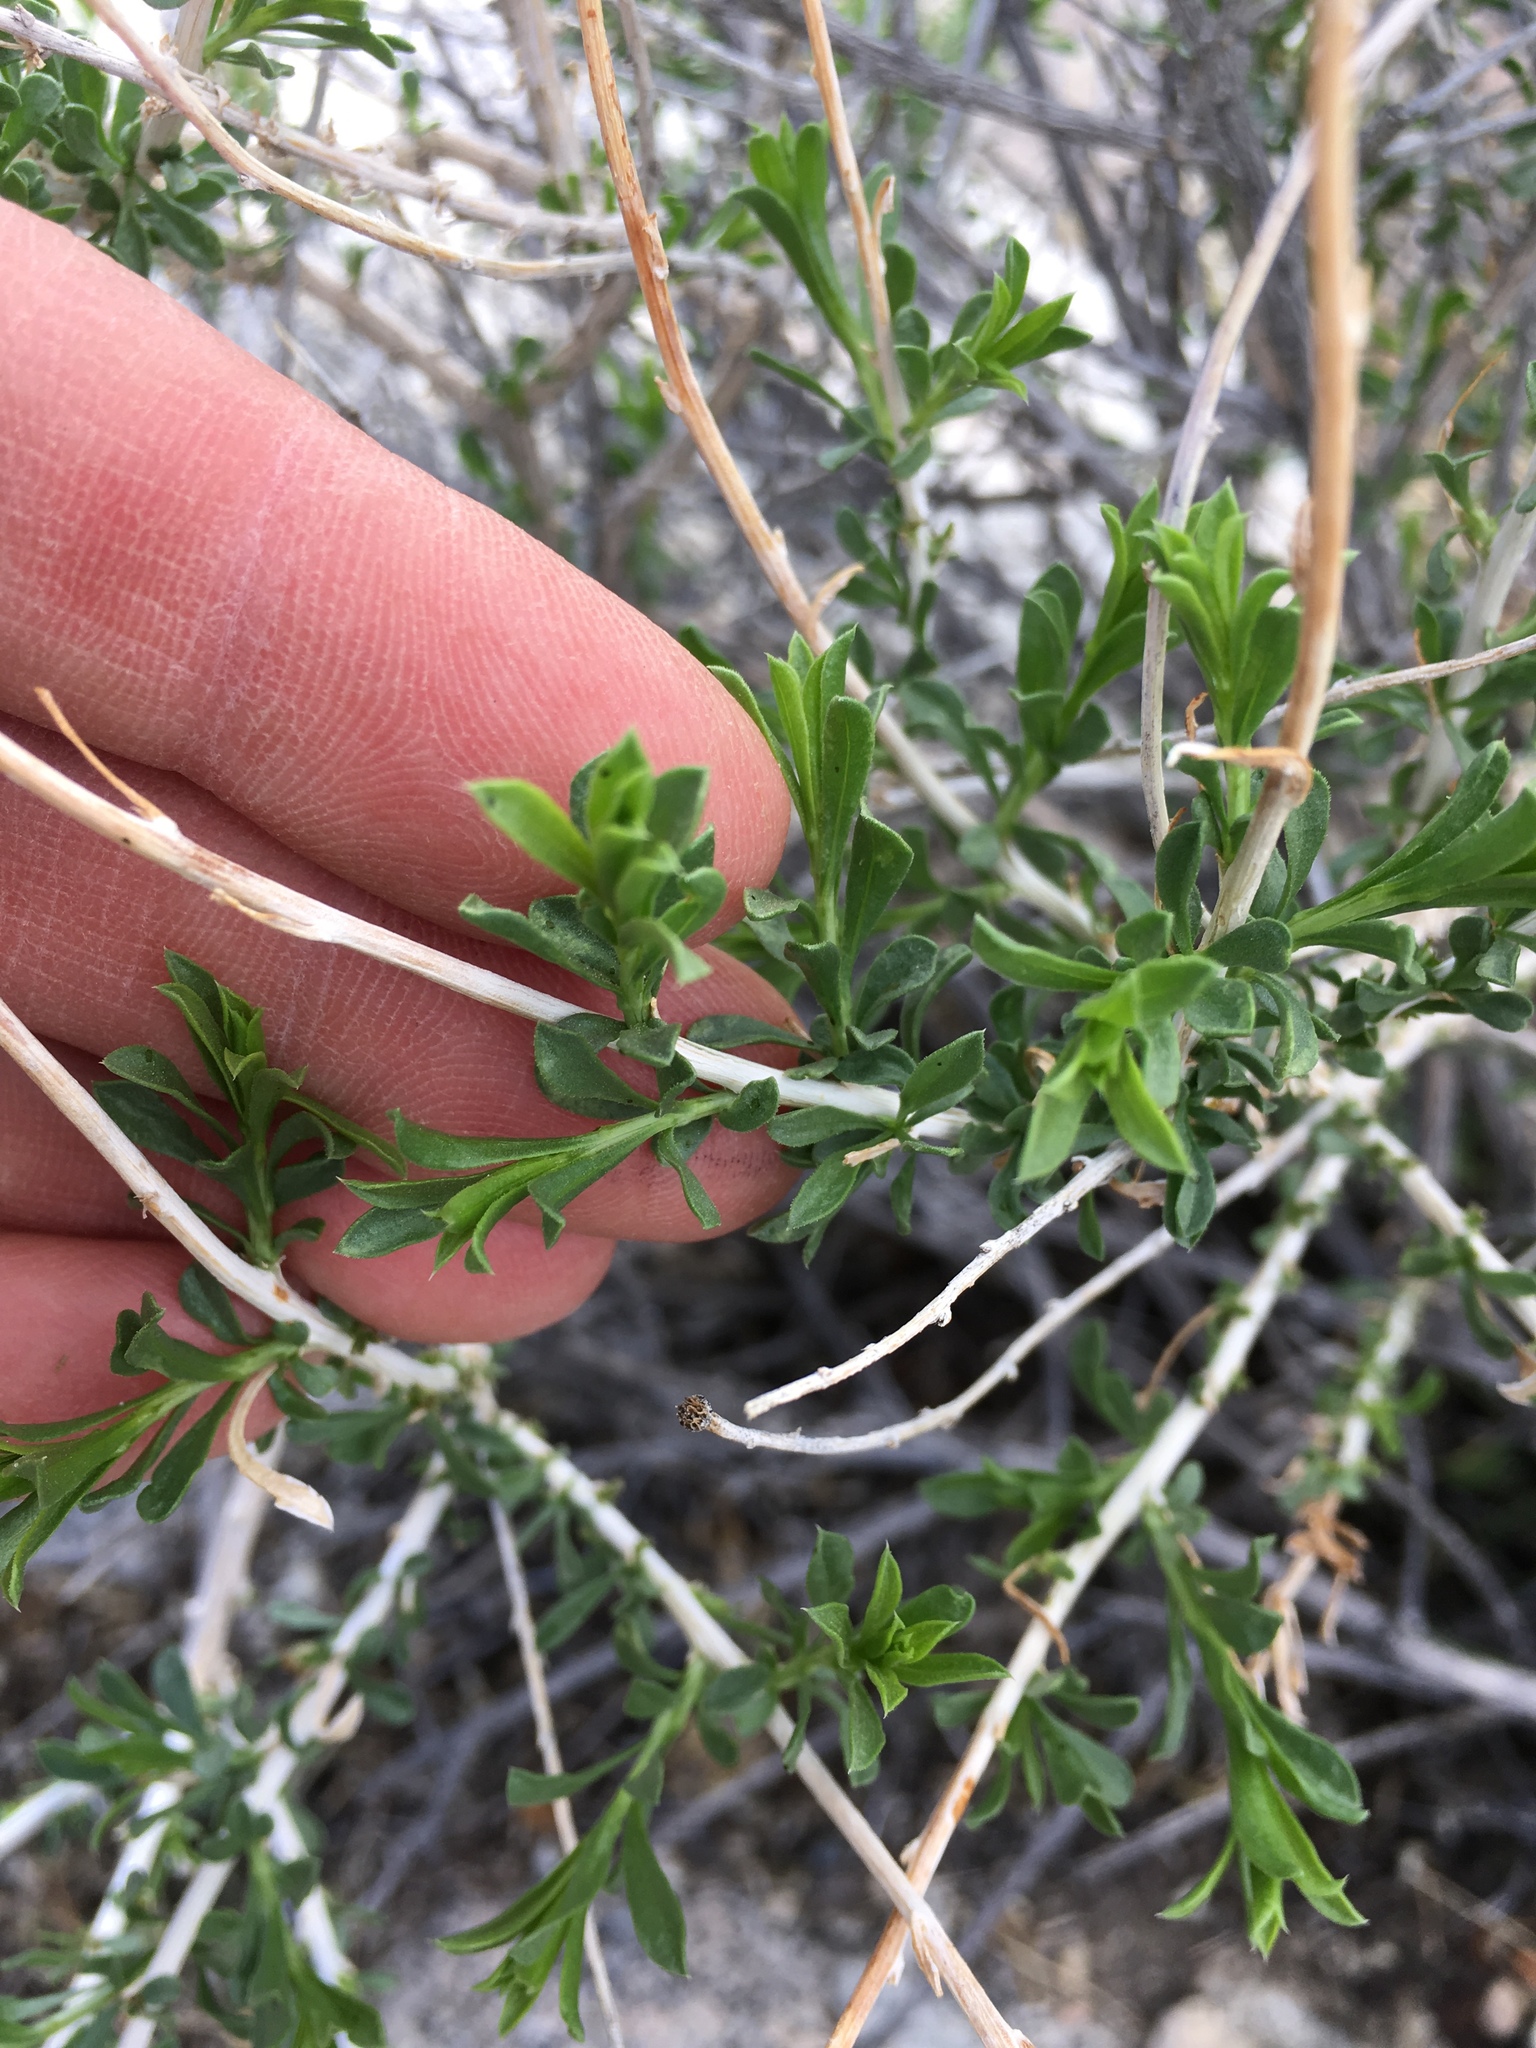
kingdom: Plantae
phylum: Tracheophyta
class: Magnoliopsida
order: Asterales
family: Asteraceae
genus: Acamptopappus
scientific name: Acamptopappus sphaerocephalus
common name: Goldenhead
